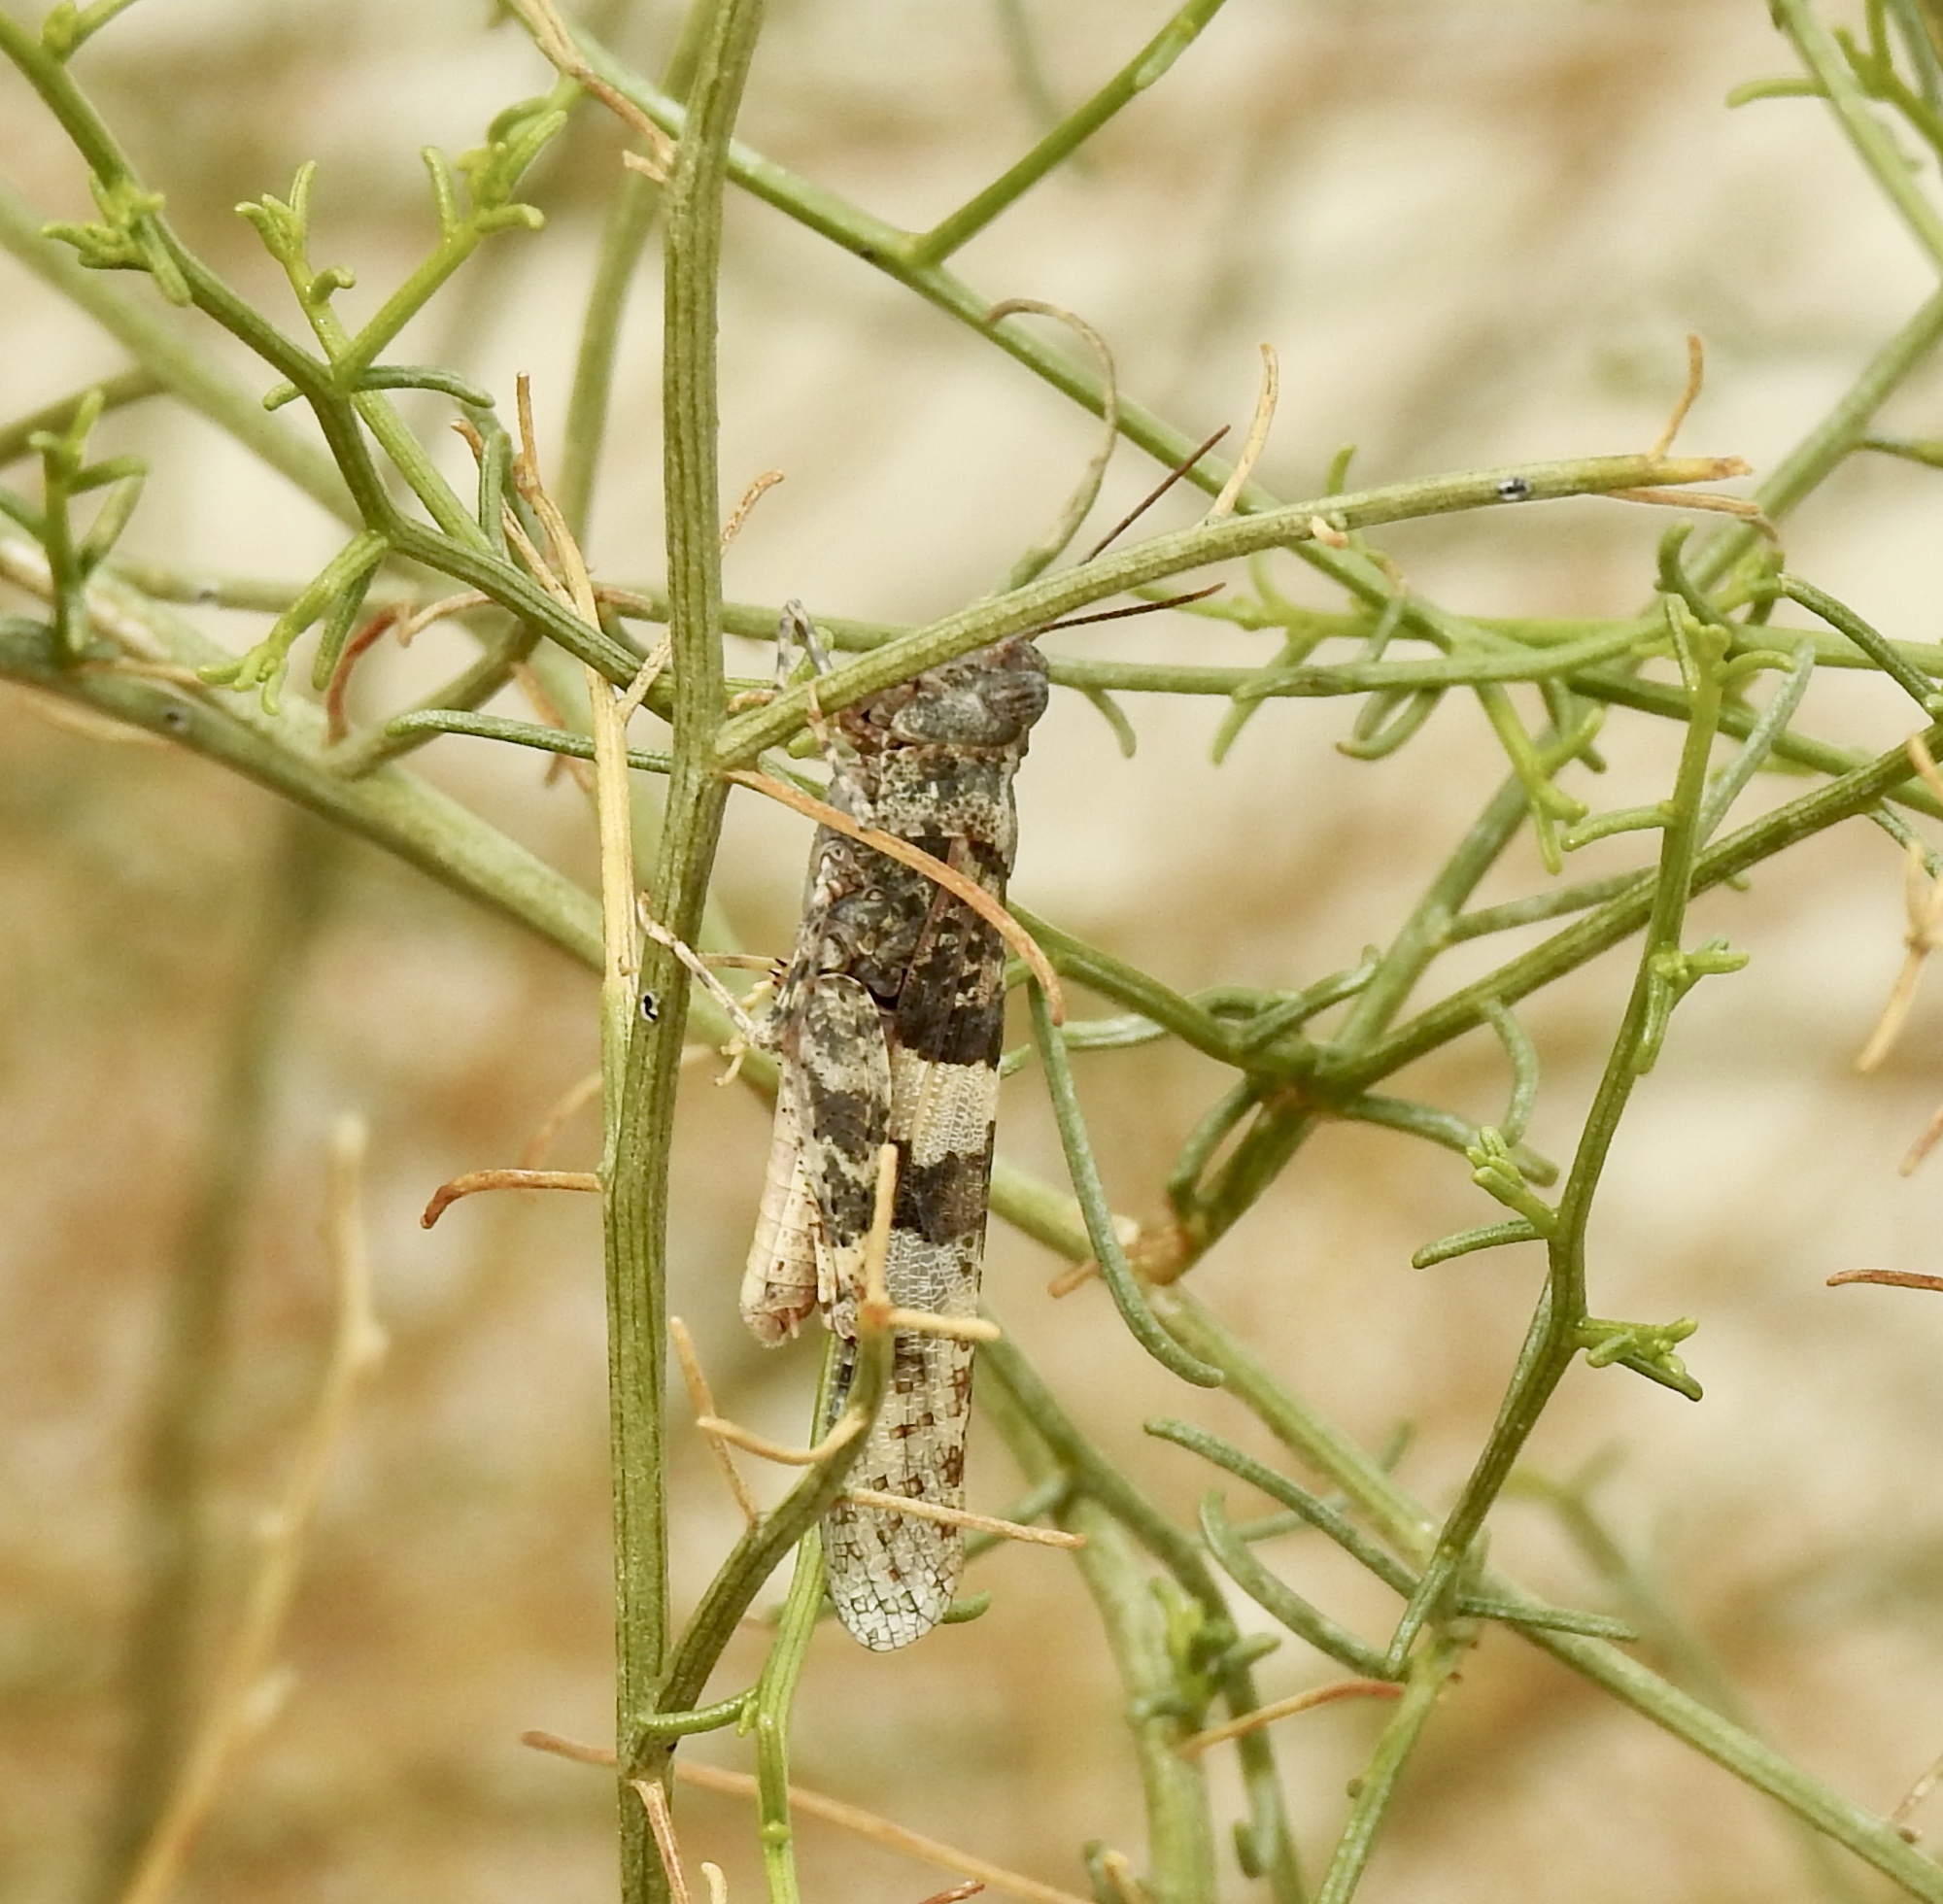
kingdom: Animalia
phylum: Arthropoda
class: Insecta
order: Orthoptera
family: Acrididae
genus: Trimerotropis
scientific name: Trimerotropis pallidipennis
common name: Pallid-winged grasshopper
